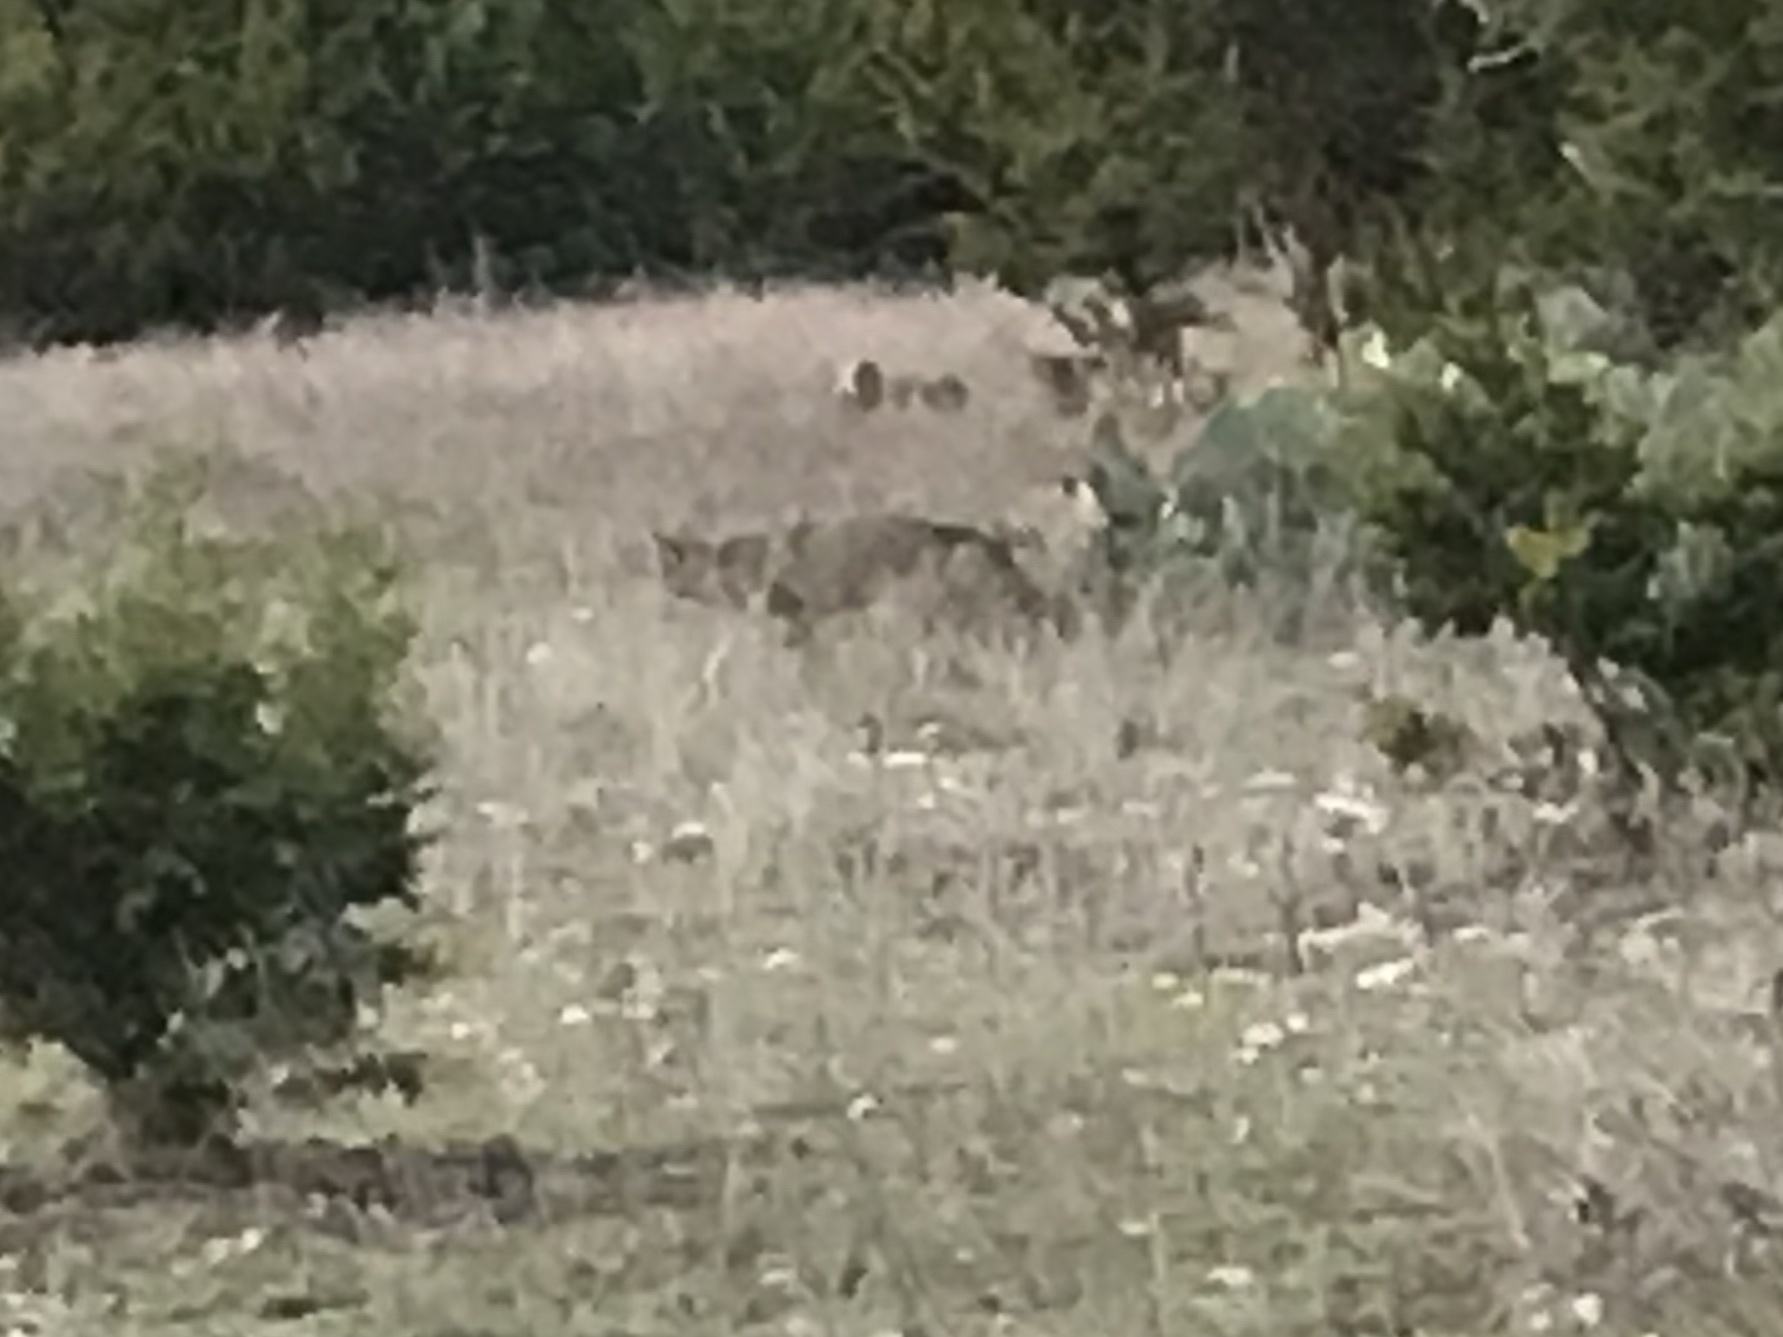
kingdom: Animalia
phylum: Chordata
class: Mammalia
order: Carnivora
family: Canidae
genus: Canis
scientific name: Canis latrans
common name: Coyote
